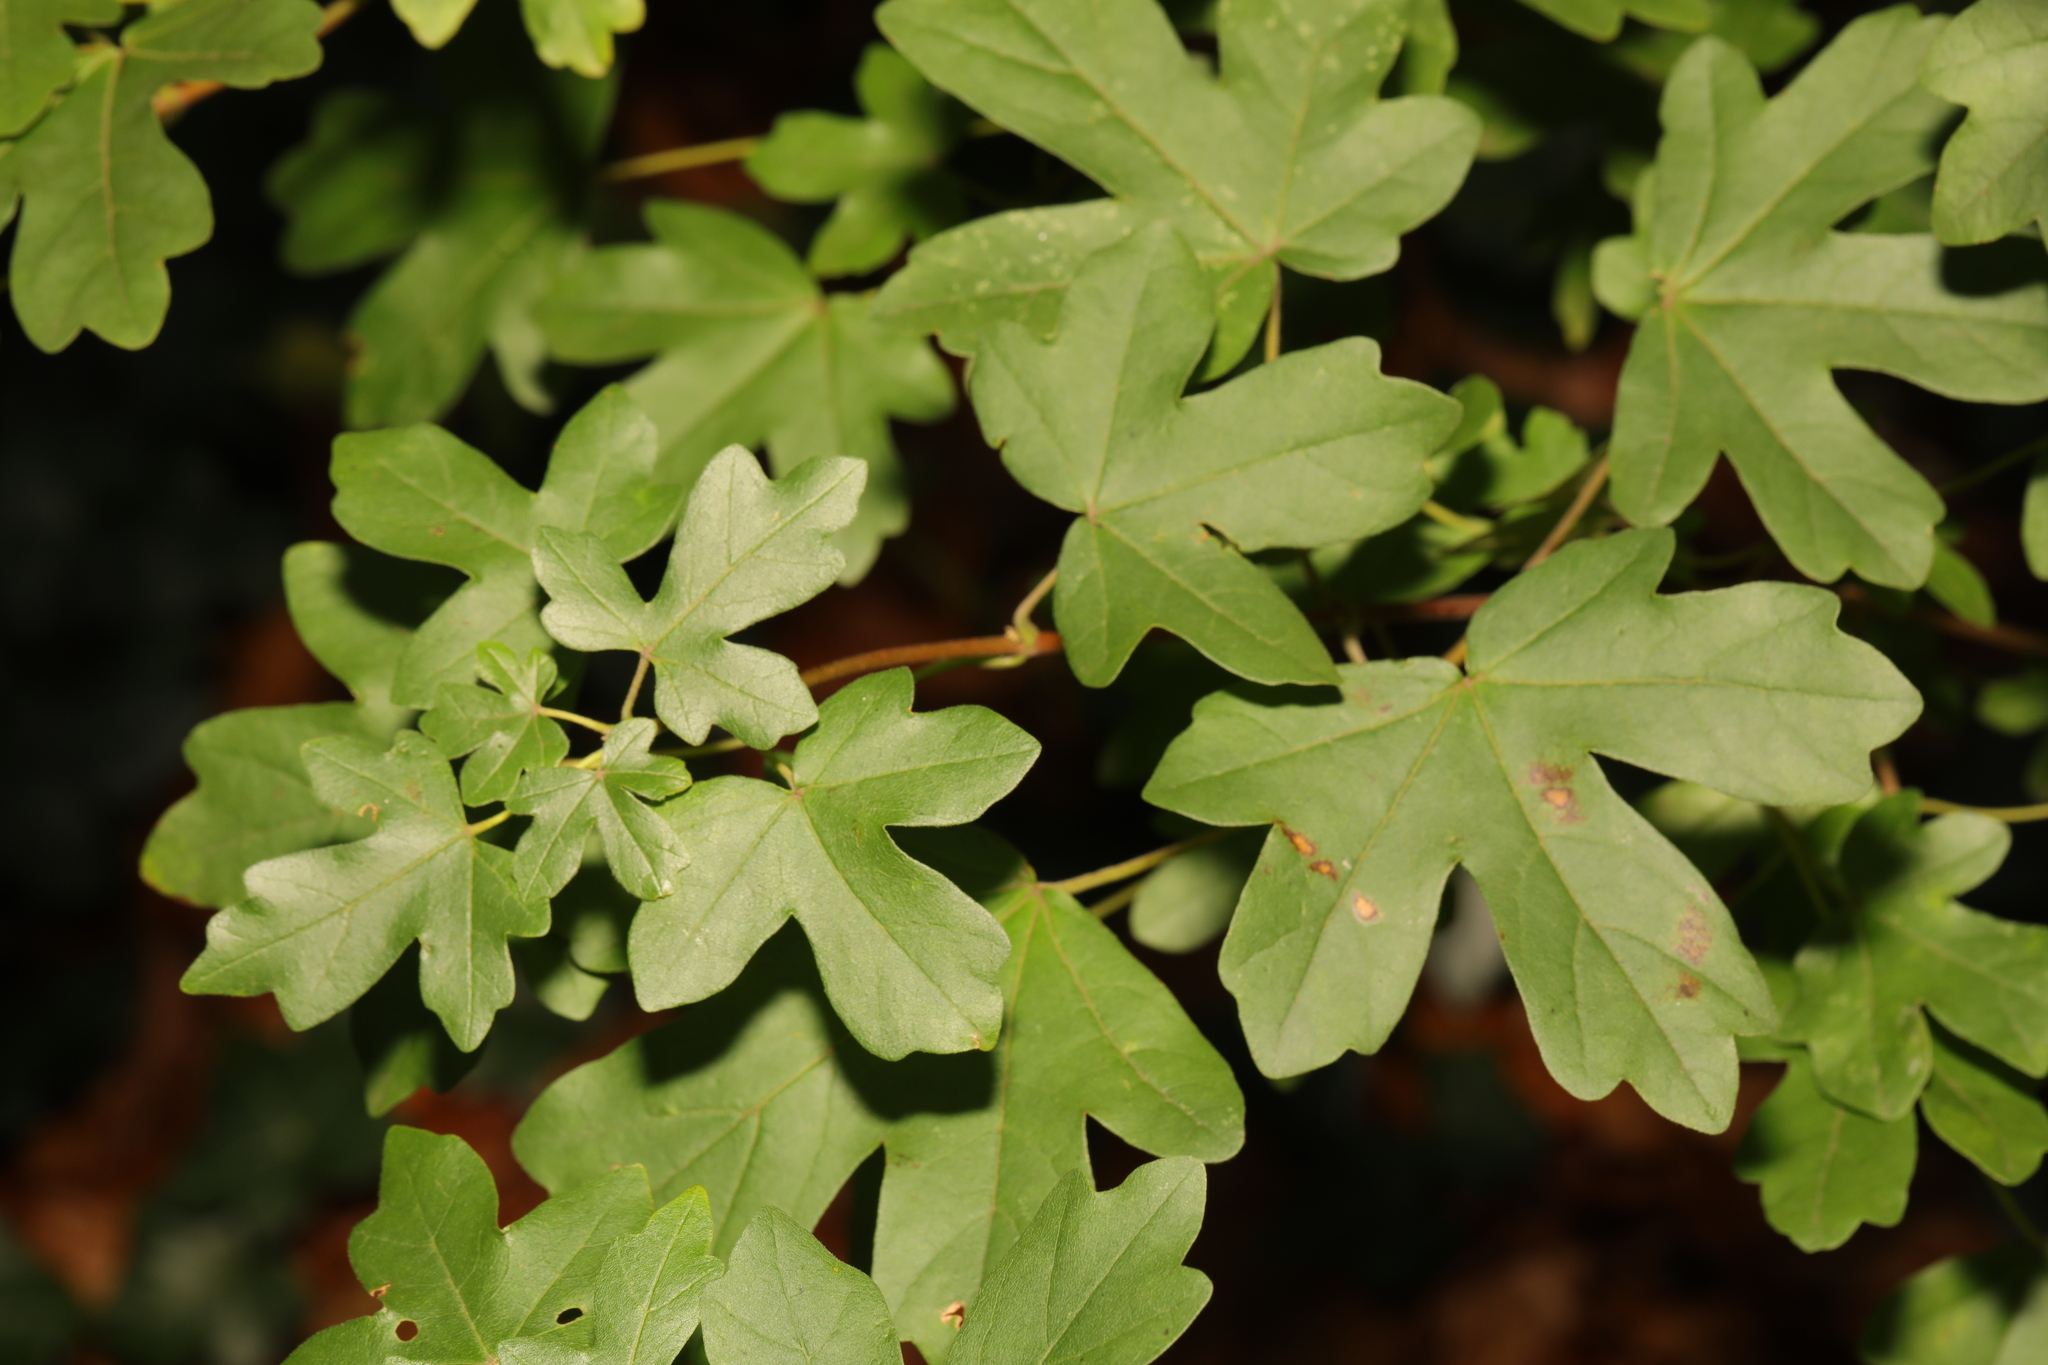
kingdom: Plantae
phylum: Tracheophyta
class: Magnoliopsida
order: Sapindales
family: Sapindaceae
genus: Acer
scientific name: Acer campestre
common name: Field maple
